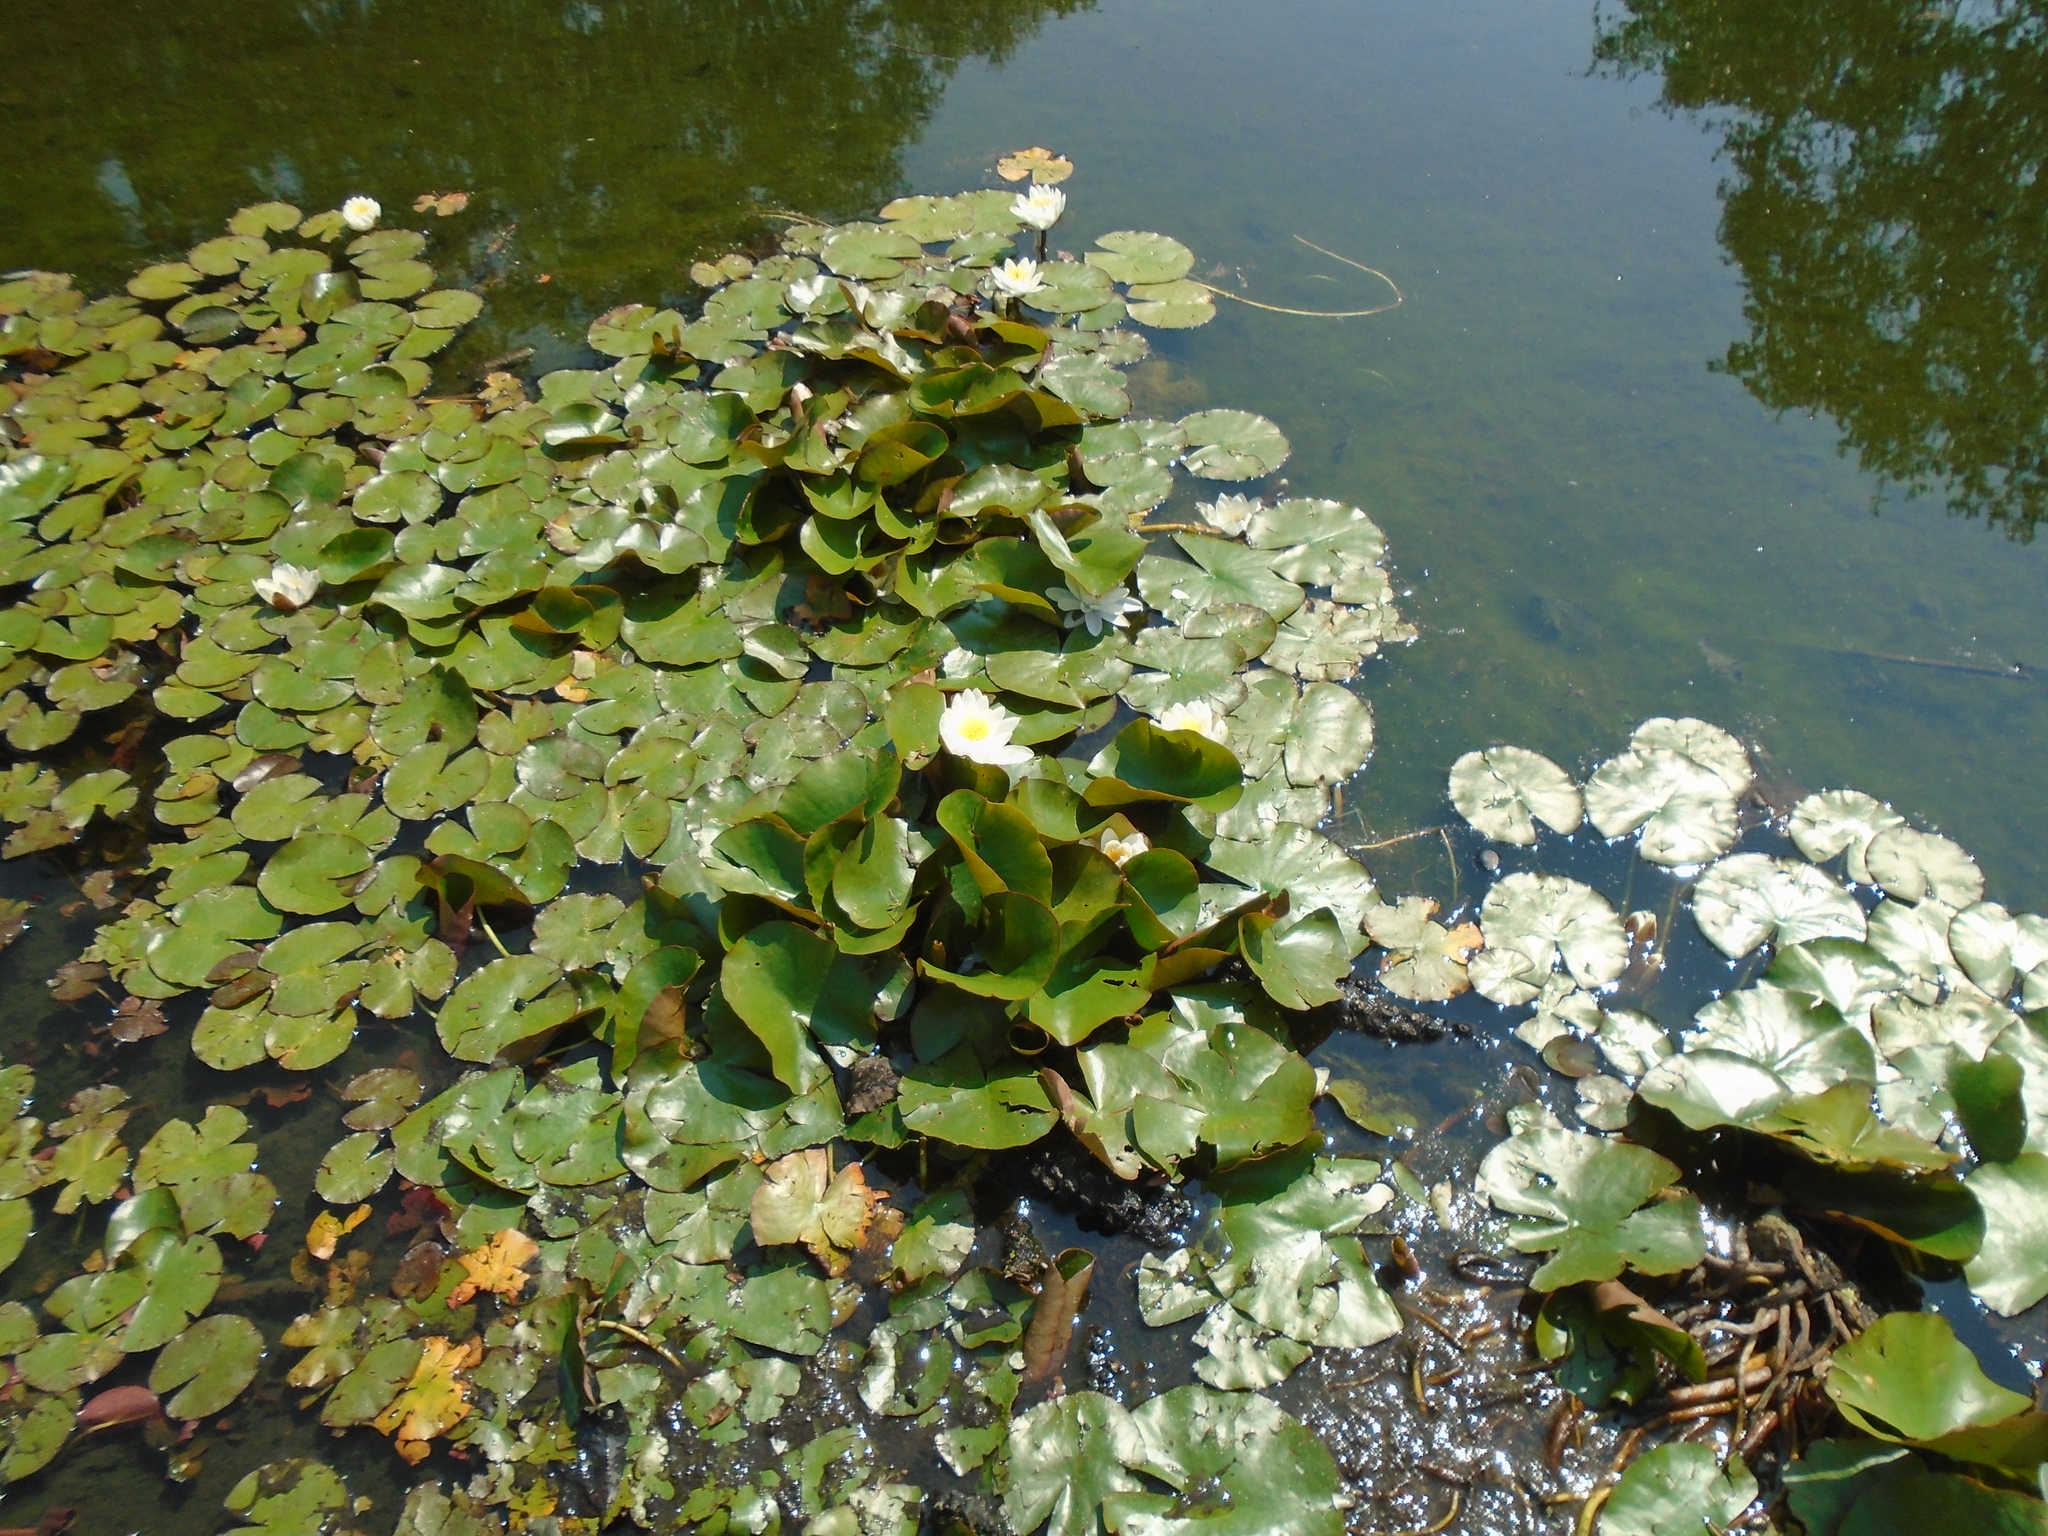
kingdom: Plantae
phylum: Tracheophyta
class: Magnoliopsida
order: Nymphaeales
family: Nymphaeaceae
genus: Nymphaea
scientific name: Nymphaea alba
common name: White water-lily
